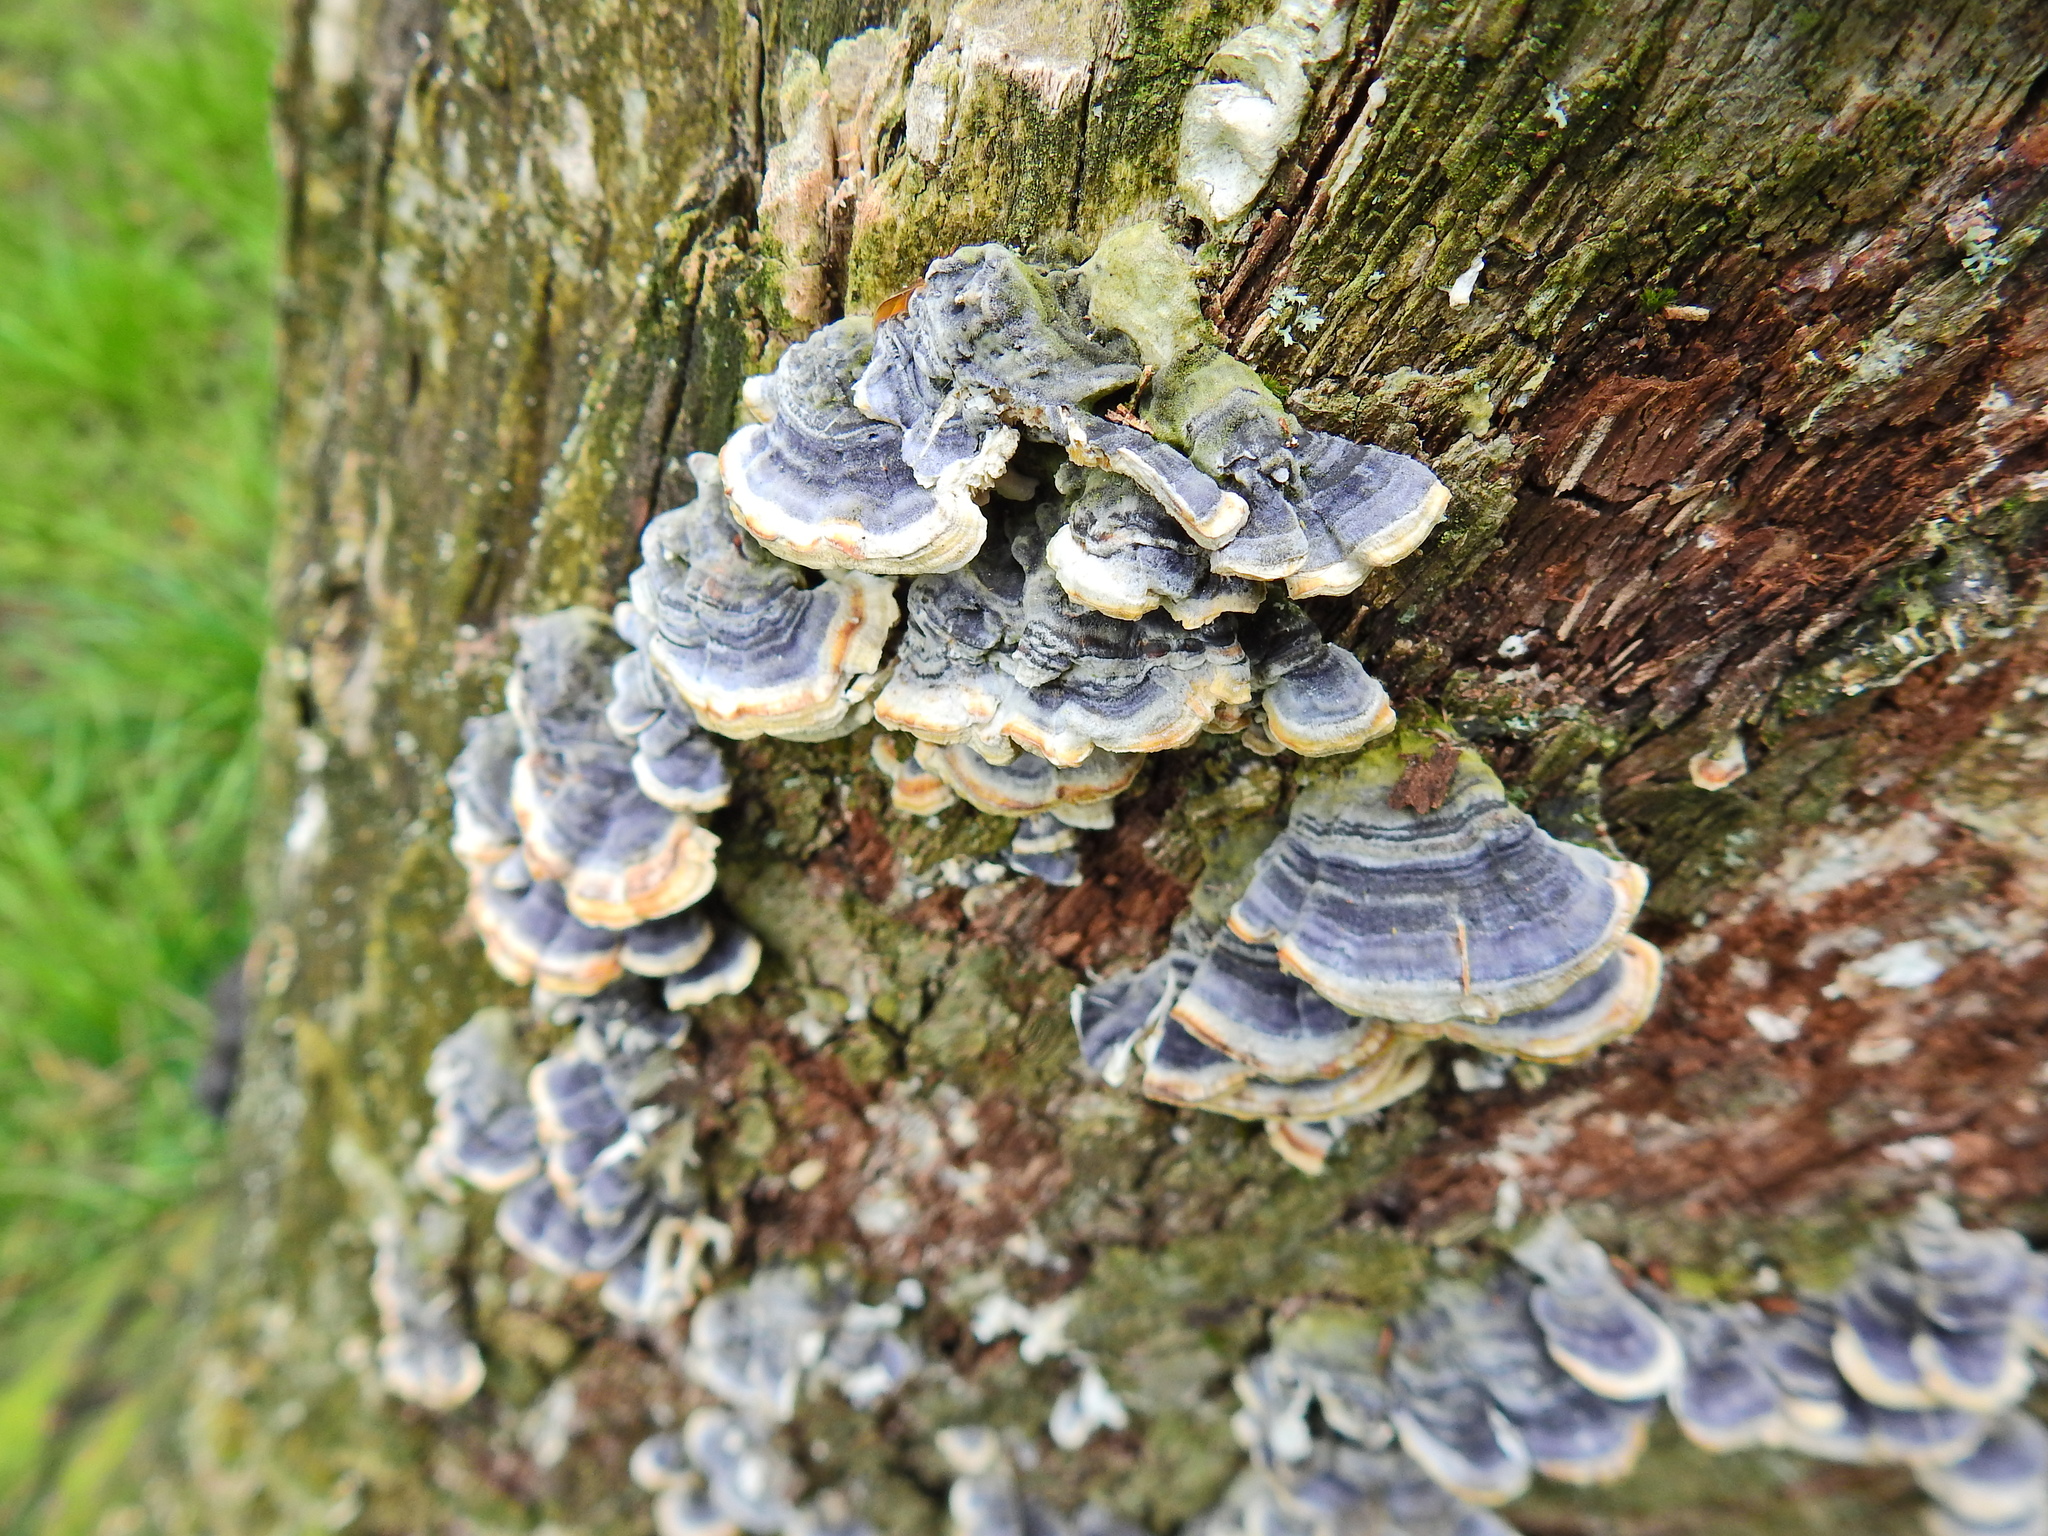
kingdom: Fungi
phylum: Basidiomycota
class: Agaricomycetes
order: Polyporales
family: Polyporaceae
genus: Trametes
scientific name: Trametes versicolor
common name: Turkeytail
